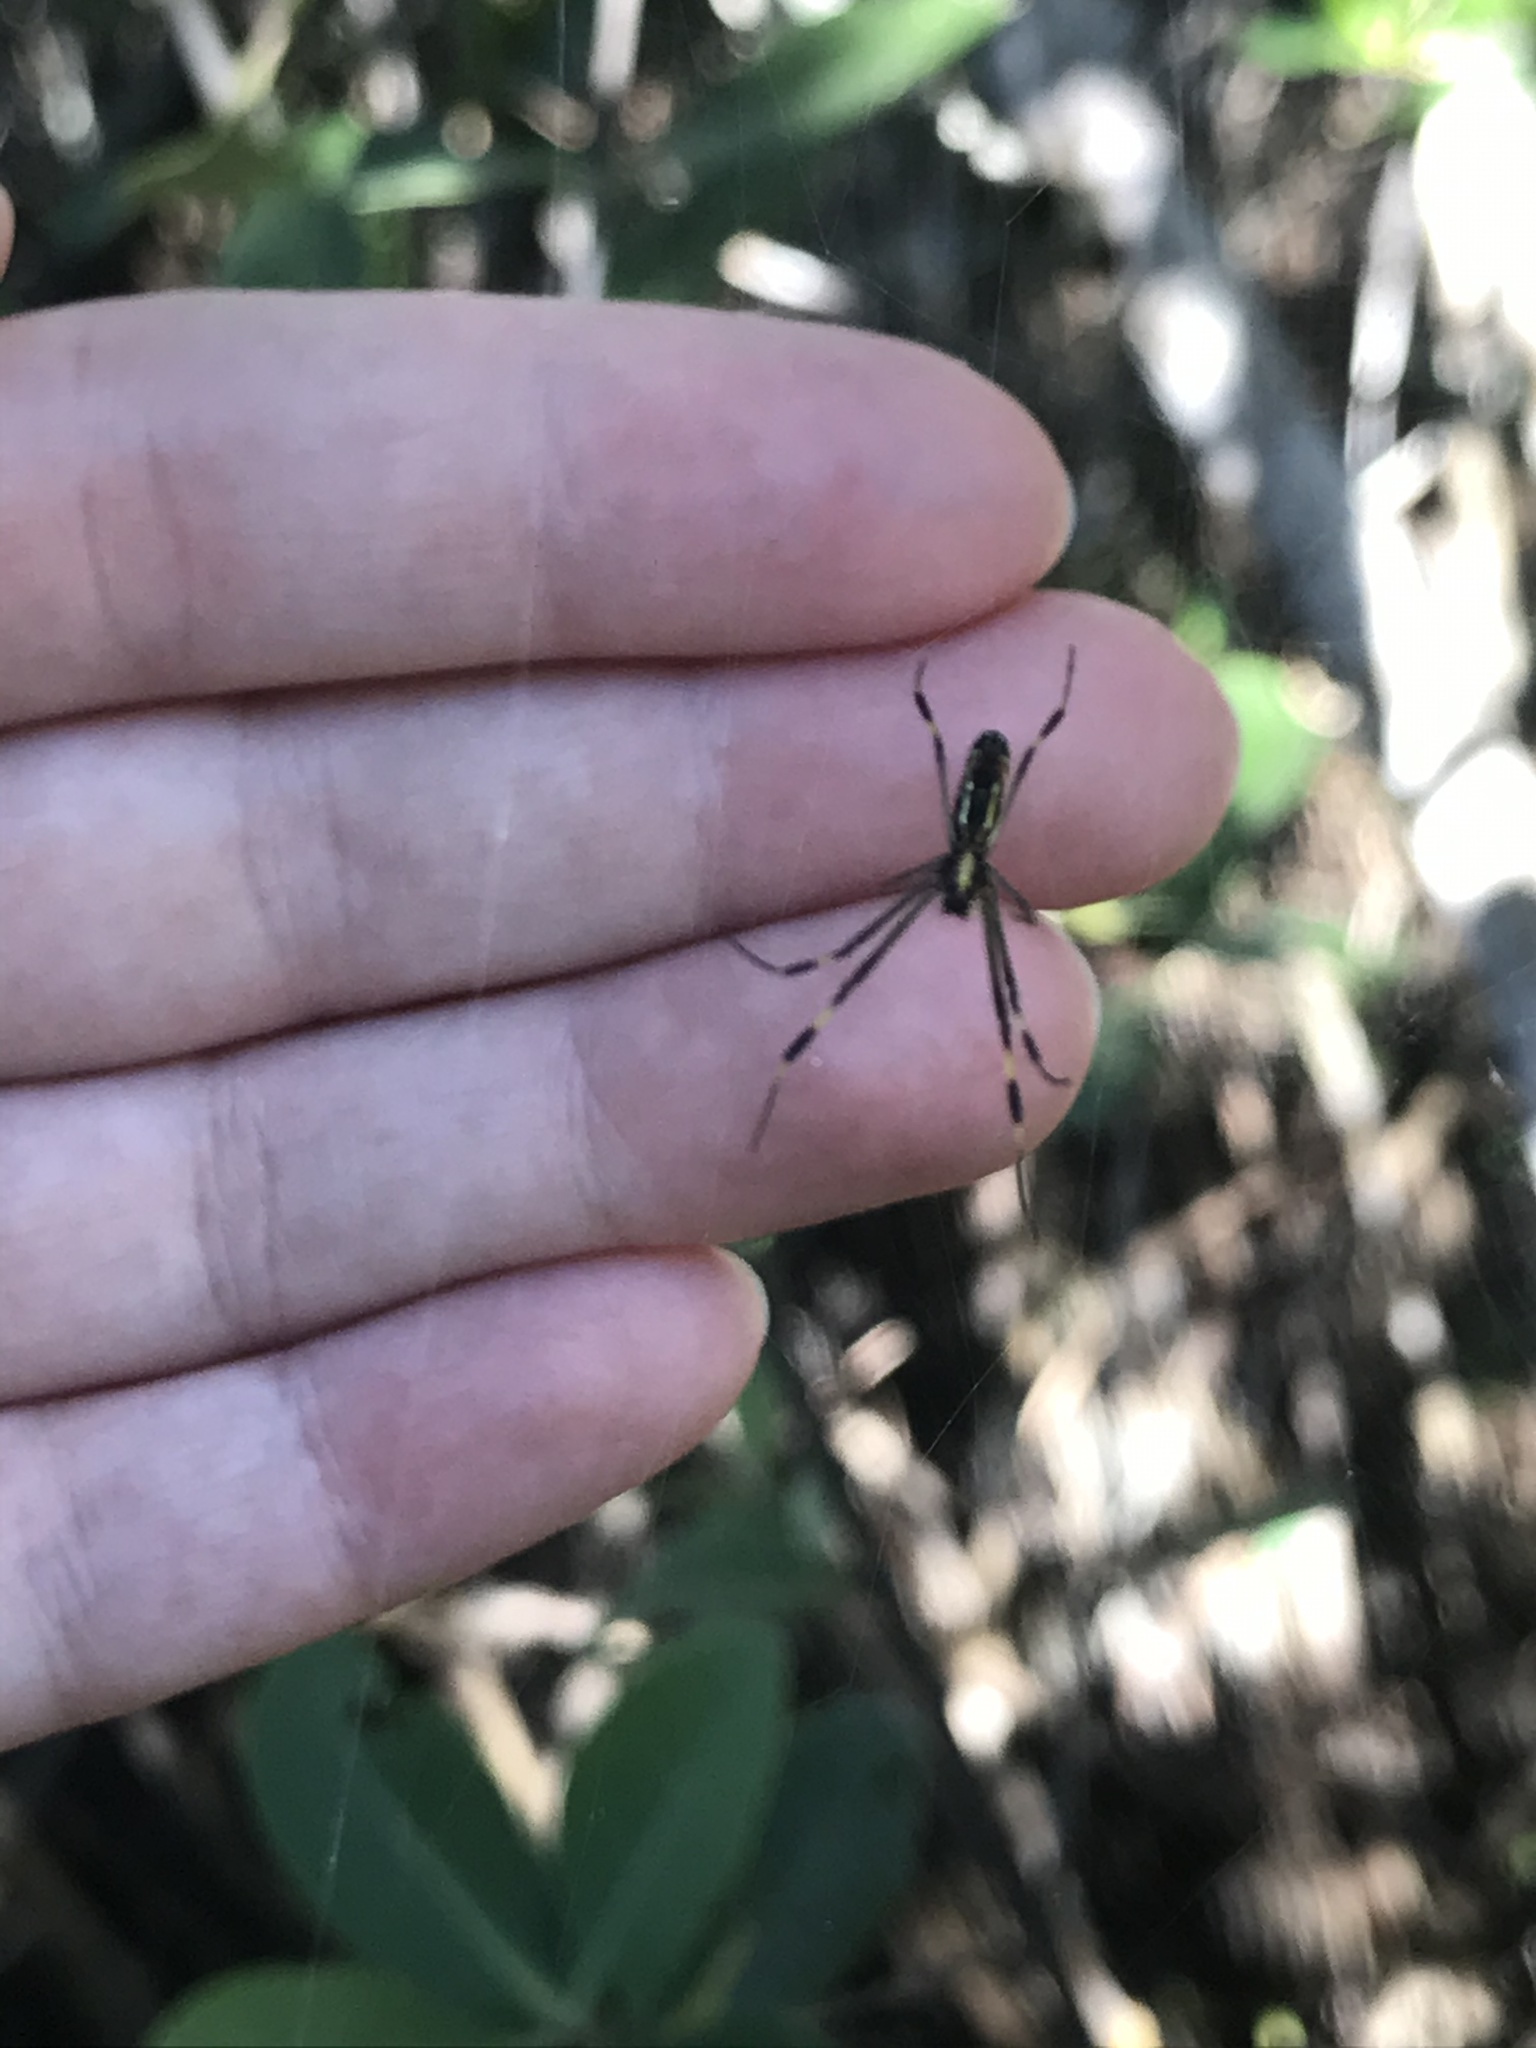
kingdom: Animalia
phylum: Arthropoda
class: Arachnida
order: Araneae
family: Araneidae
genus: Trichonephila
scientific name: Trichonephila clavipes
